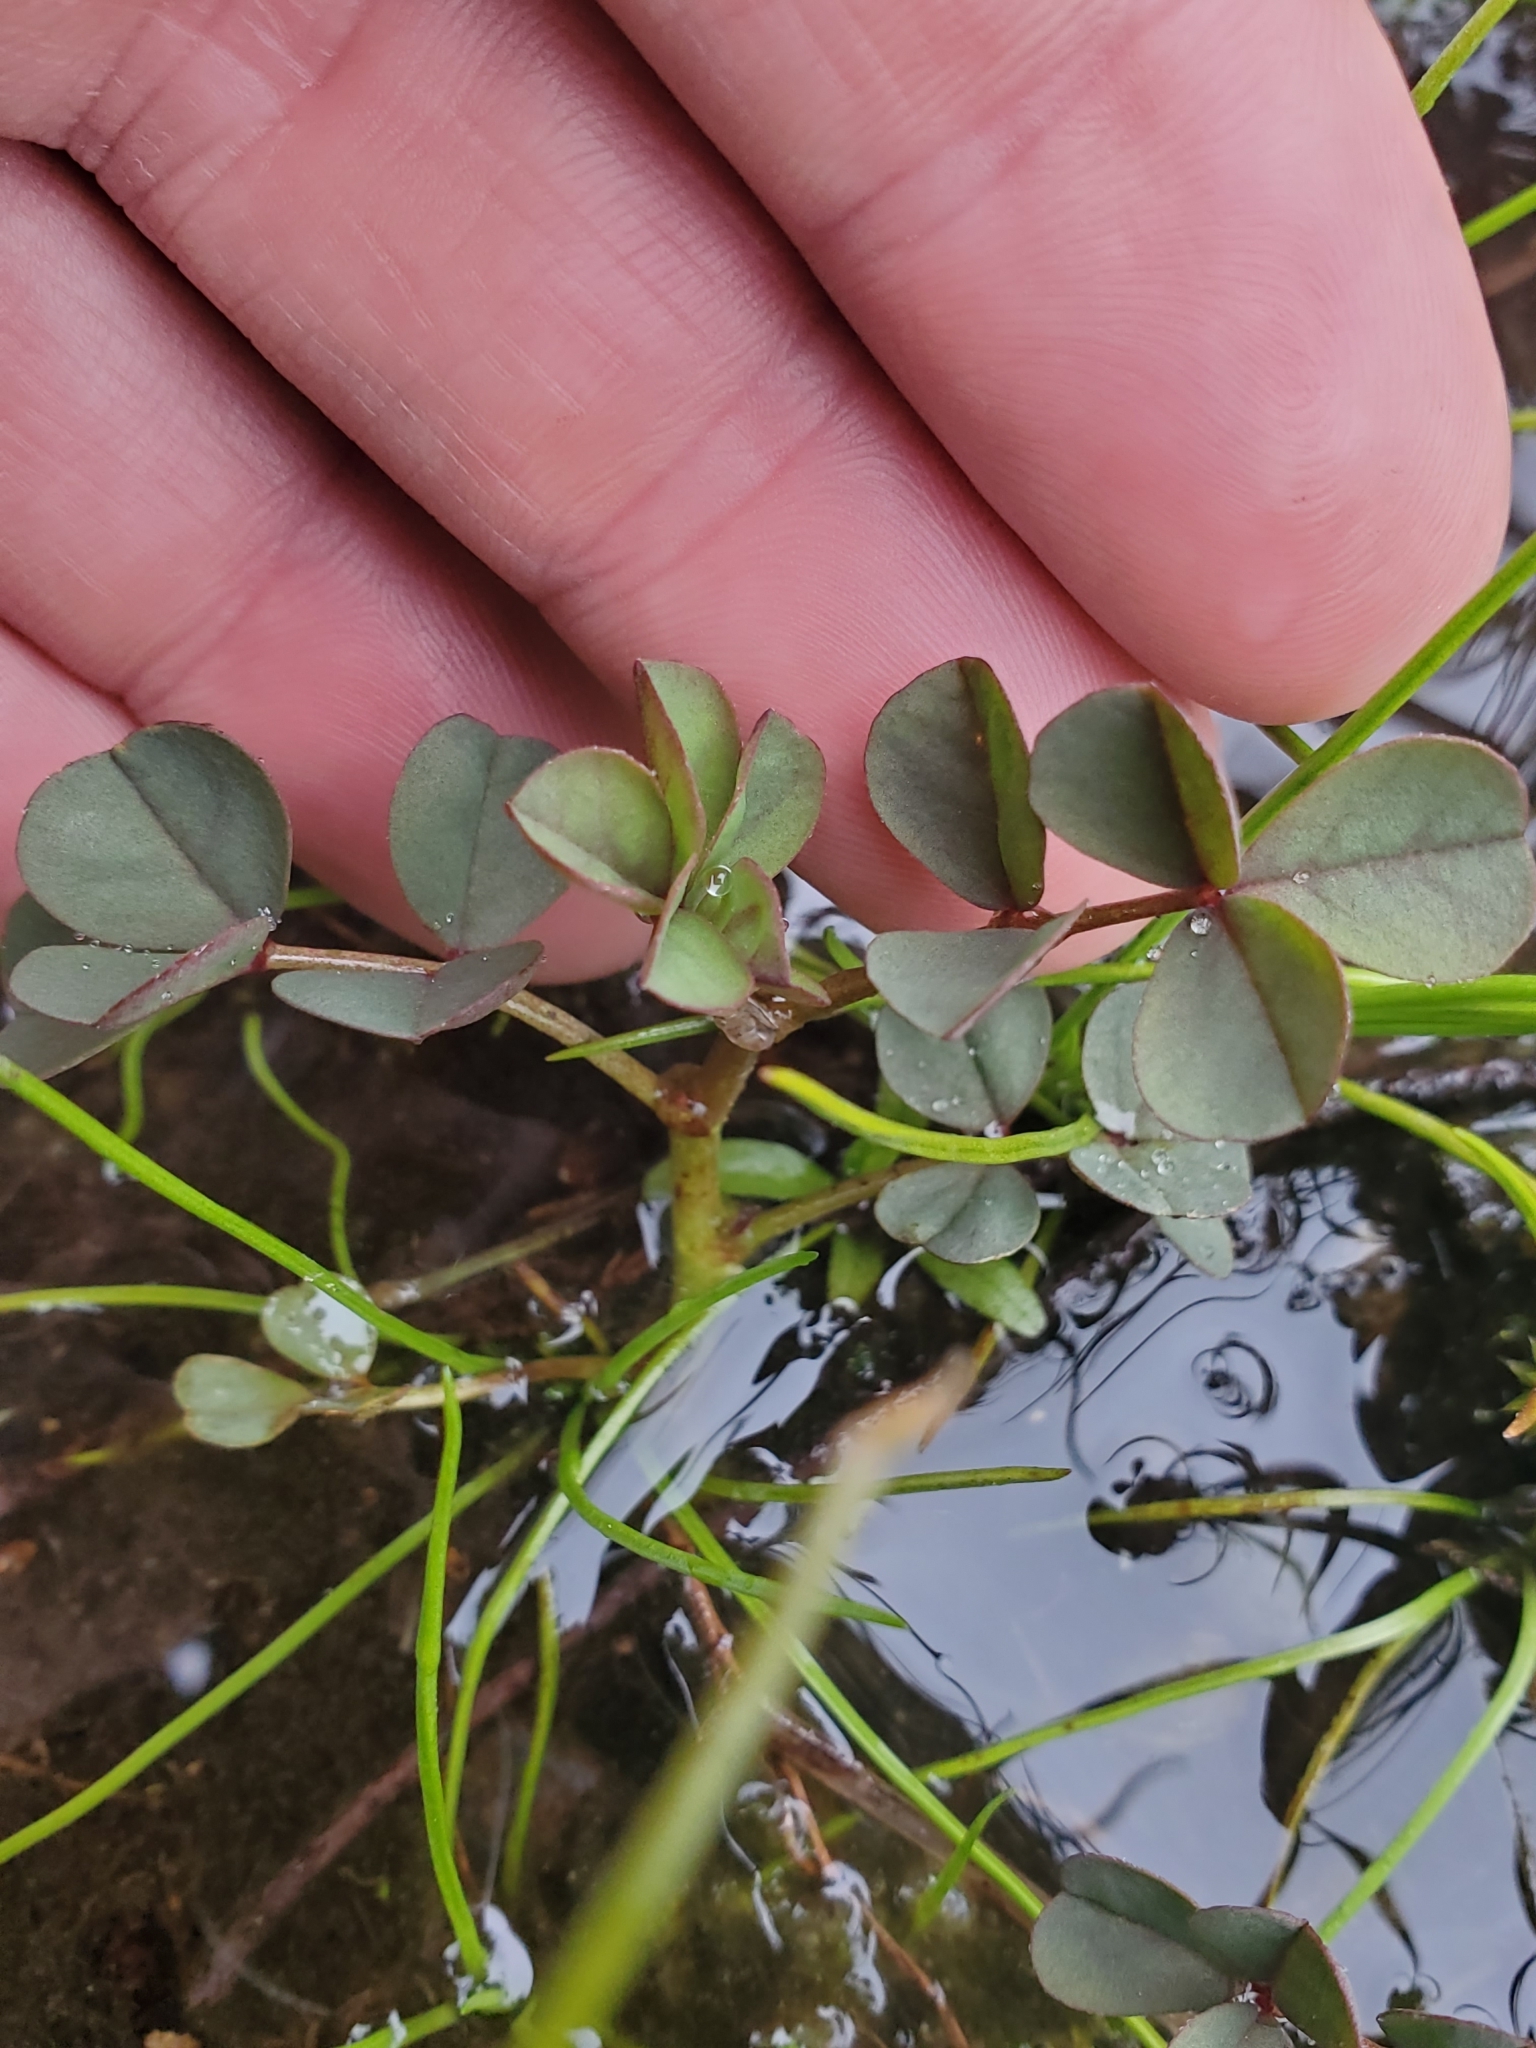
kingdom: Plantae
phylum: Tracheophyta
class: Magnoliopsida
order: Fabales
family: Fabaceae
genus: Hosackia
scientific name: Hosackia pinnata
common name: Bog bird's-foot trefoil
